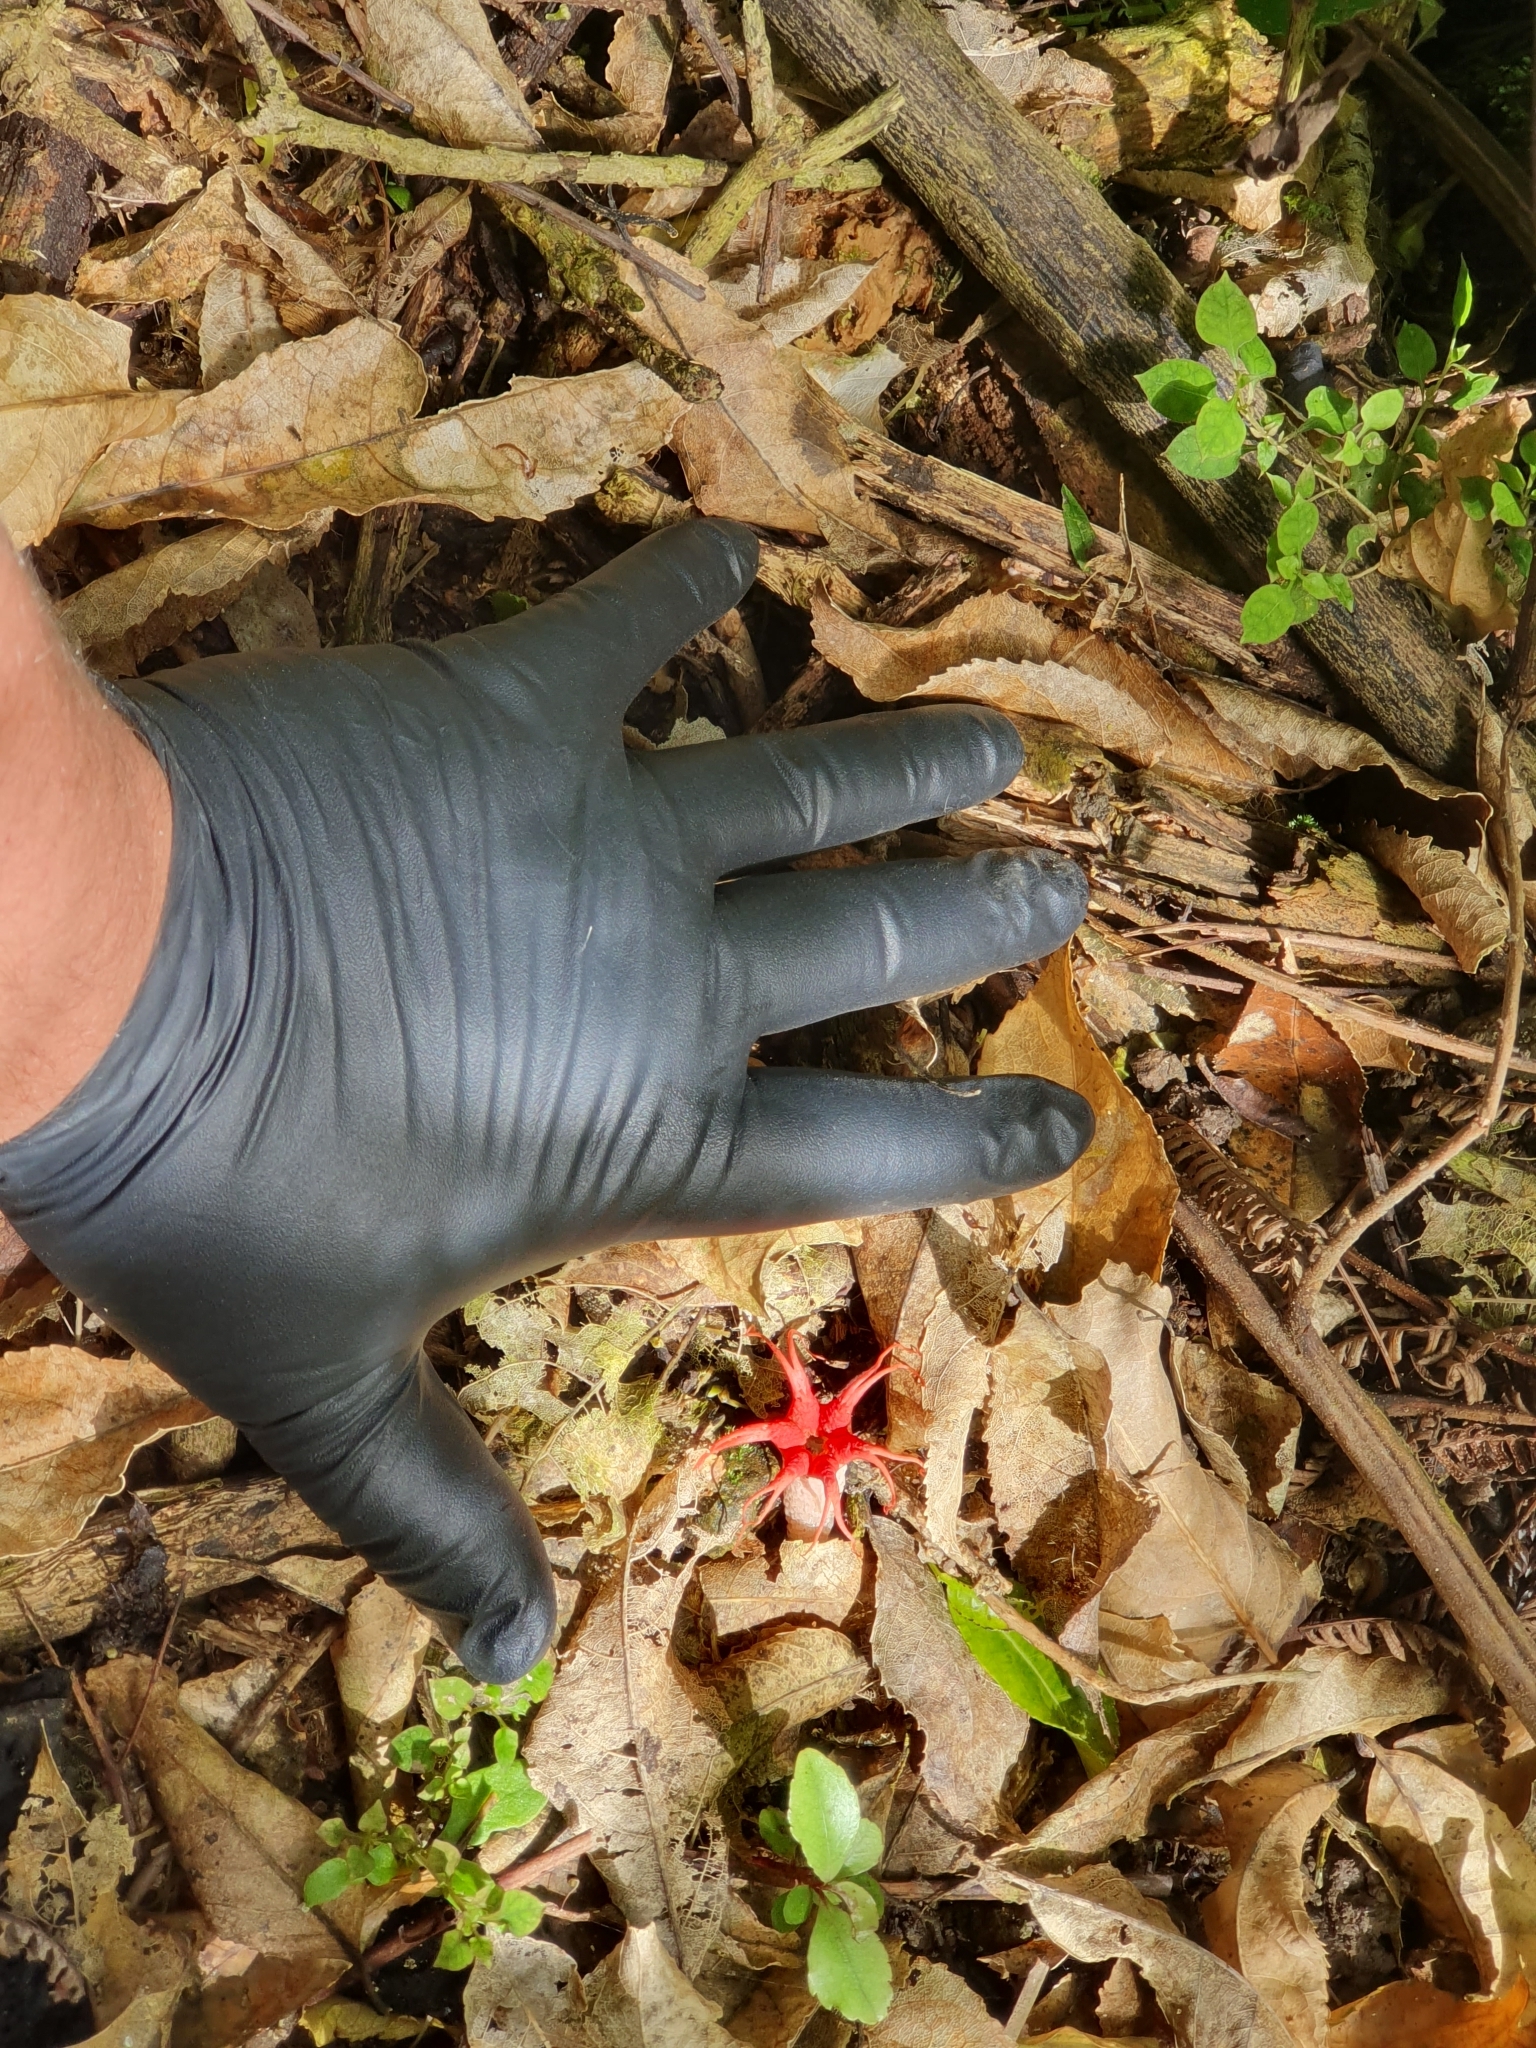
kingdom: Fungi
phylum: Basidiomycota
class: Agaricomycetes
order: Phallales
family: Phallaceae
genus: Aseroe
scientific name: Aseroe rubra
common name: Starfish fungus
